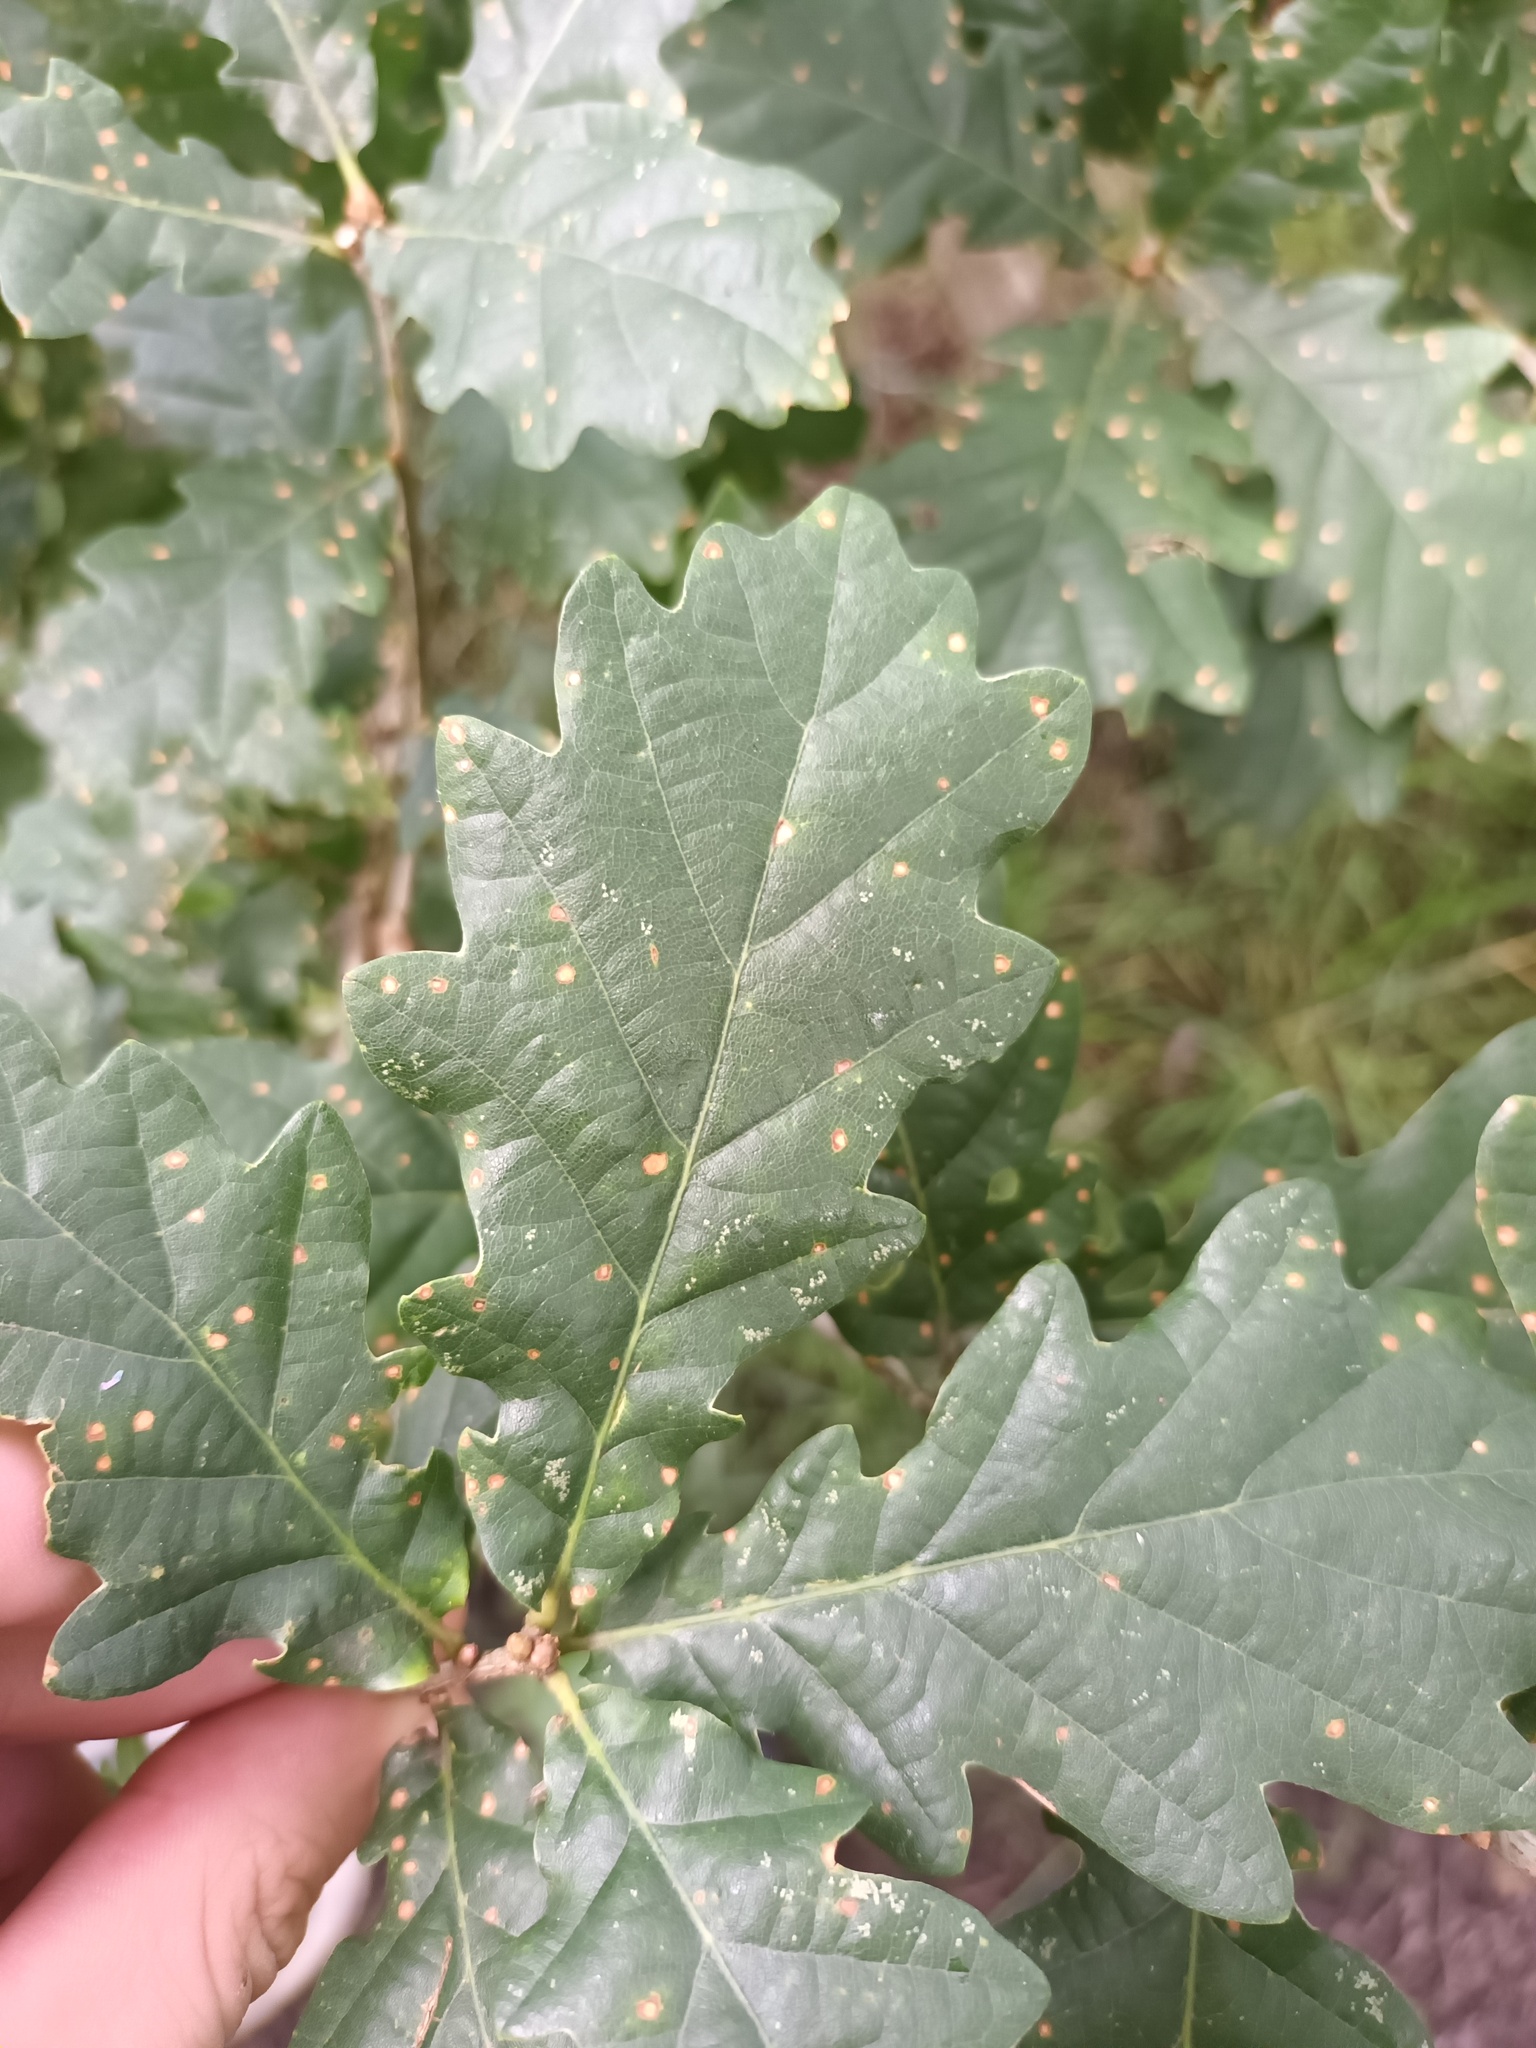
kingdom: Plantae
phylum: Tracheophyta
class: Magnoliopsida
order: Fagales
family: Fagaceae
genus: Quercus
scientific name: Quercus robur
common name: Pedunculate oak
